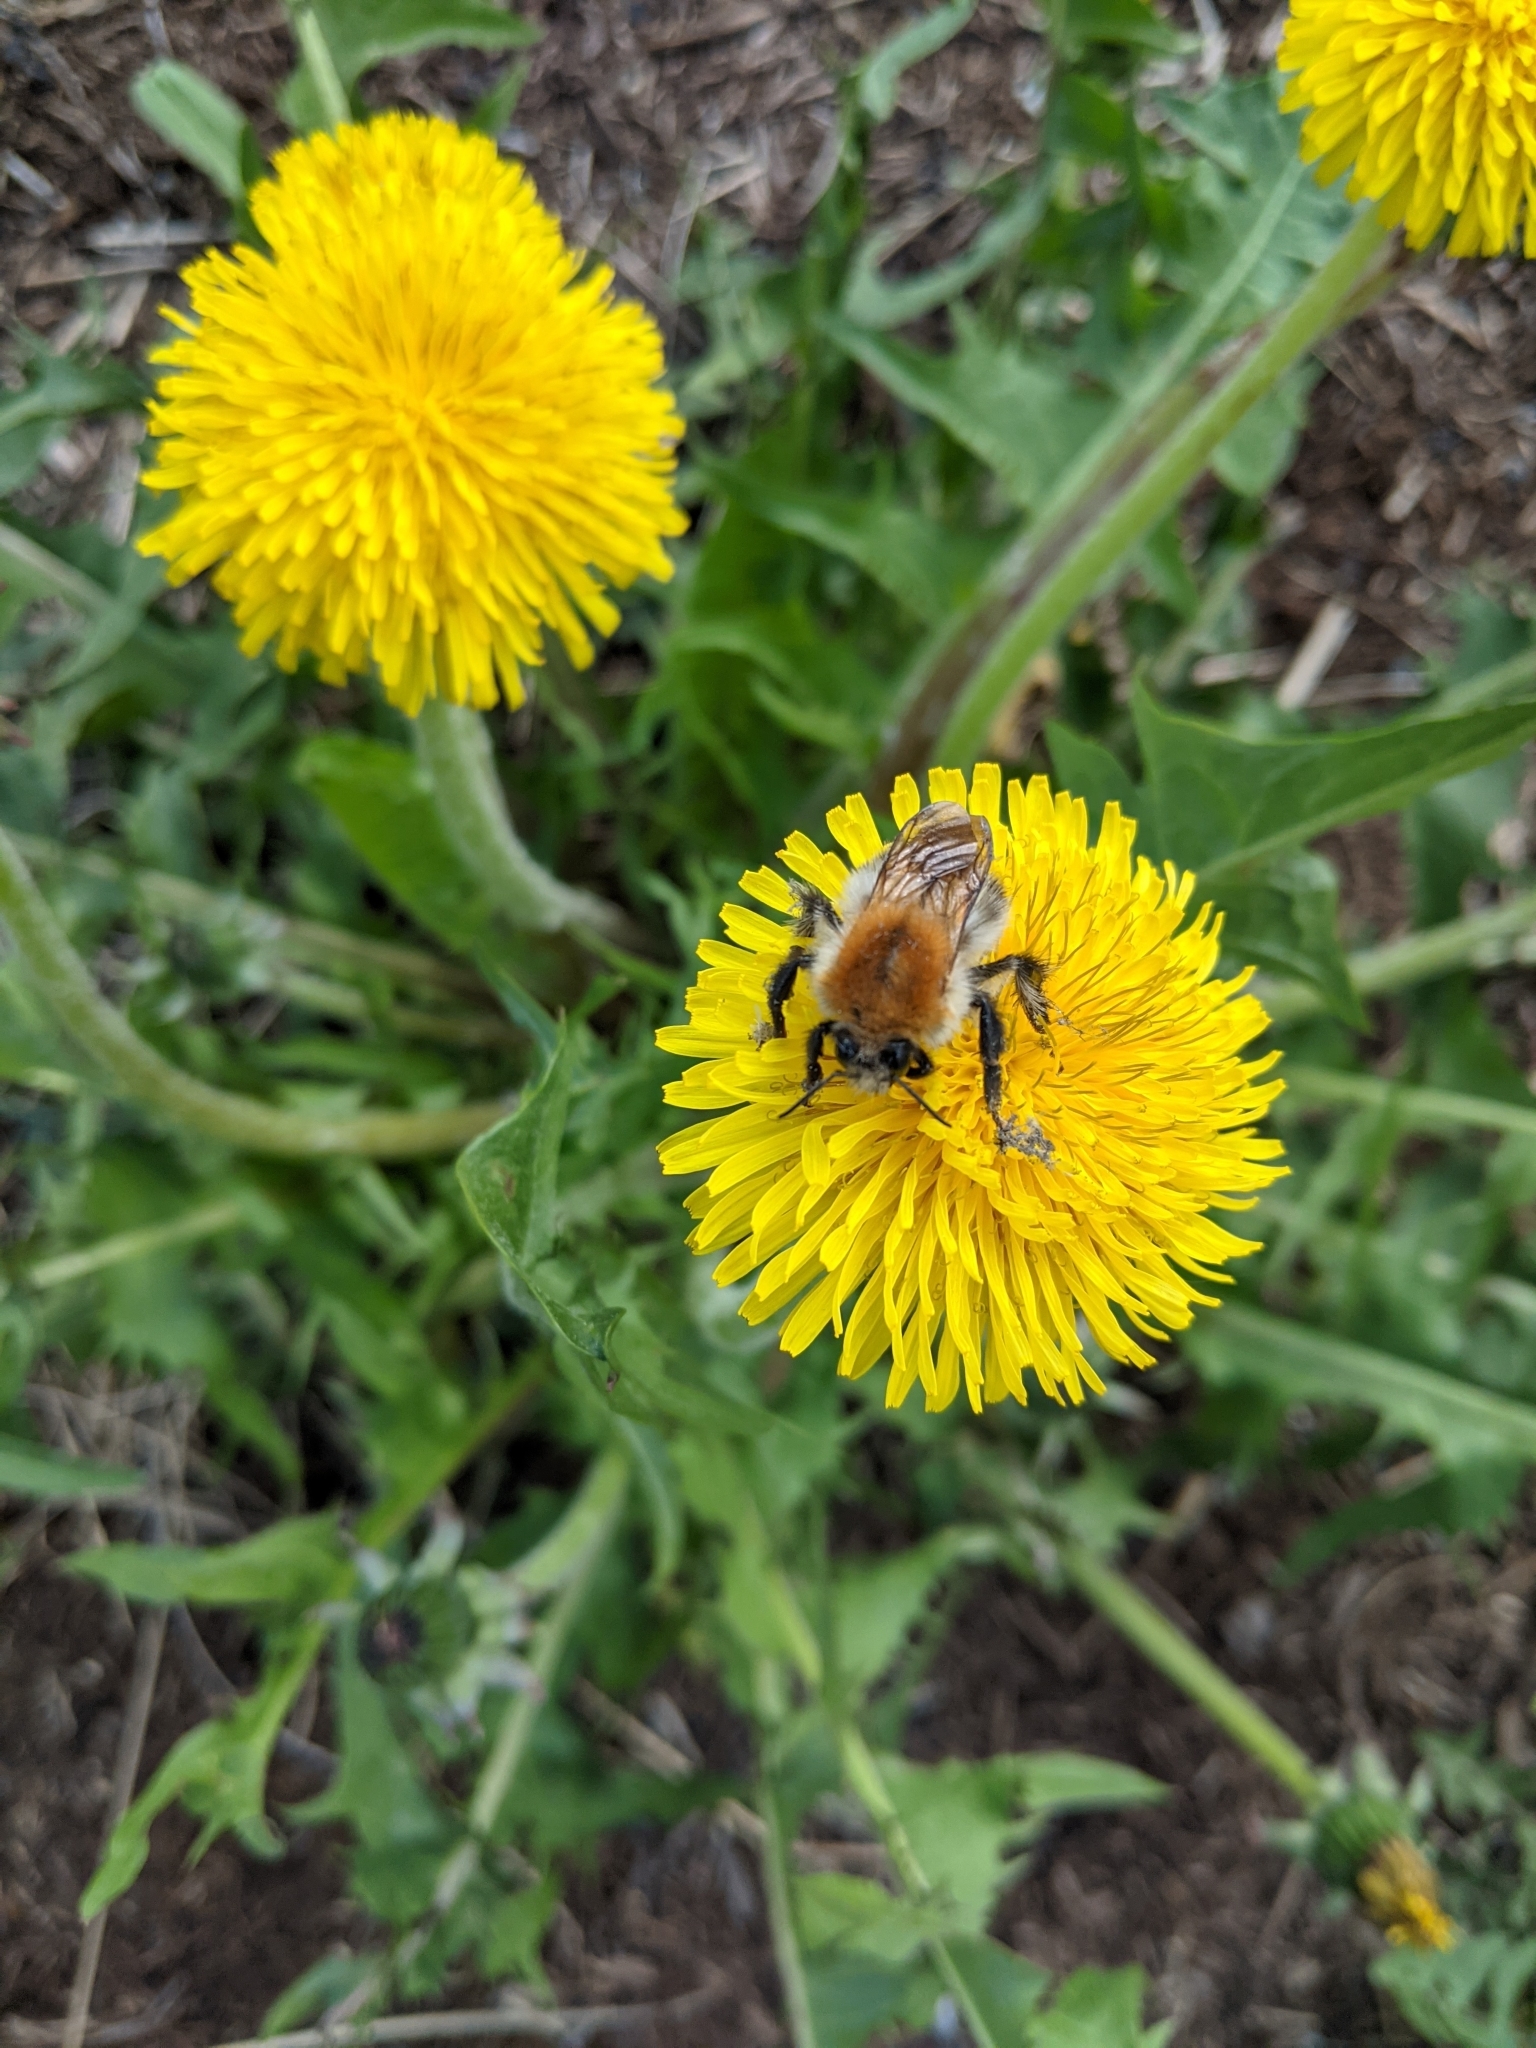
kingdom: Animalia
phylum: Arthropoda
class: Insecta
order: Hymenoptera
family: Apidae
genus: Bombus
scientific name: Bombus pascuorum
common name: Common carder bee
